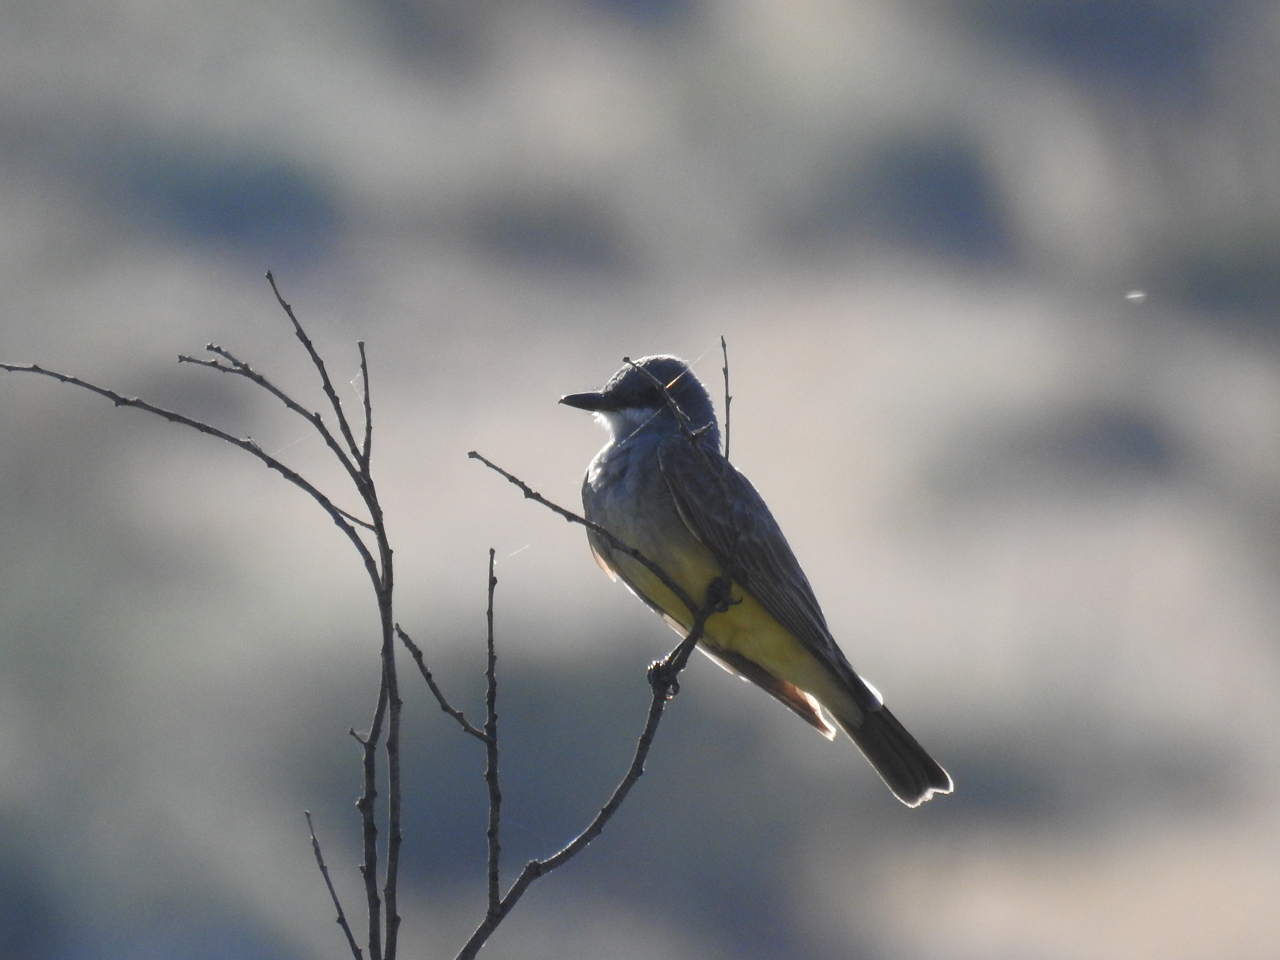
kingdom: Animalia
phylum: Chordata
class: Aves
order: Passeriformes
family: Tyrannidae
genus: Tyrannus
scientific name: Tyrannus vociferans
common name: Cassin's kingbird
